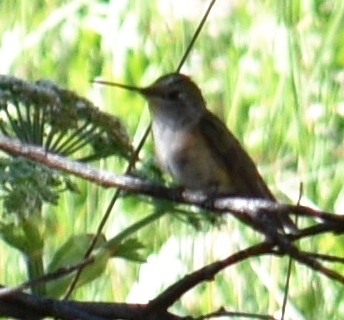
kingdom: Animalia
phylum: Chordata
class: Aves
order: Apodiformes
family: Trochilidae
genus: Selasphorus
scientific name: Selasphorus platycercus
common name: Broad-tailed hummingbird
